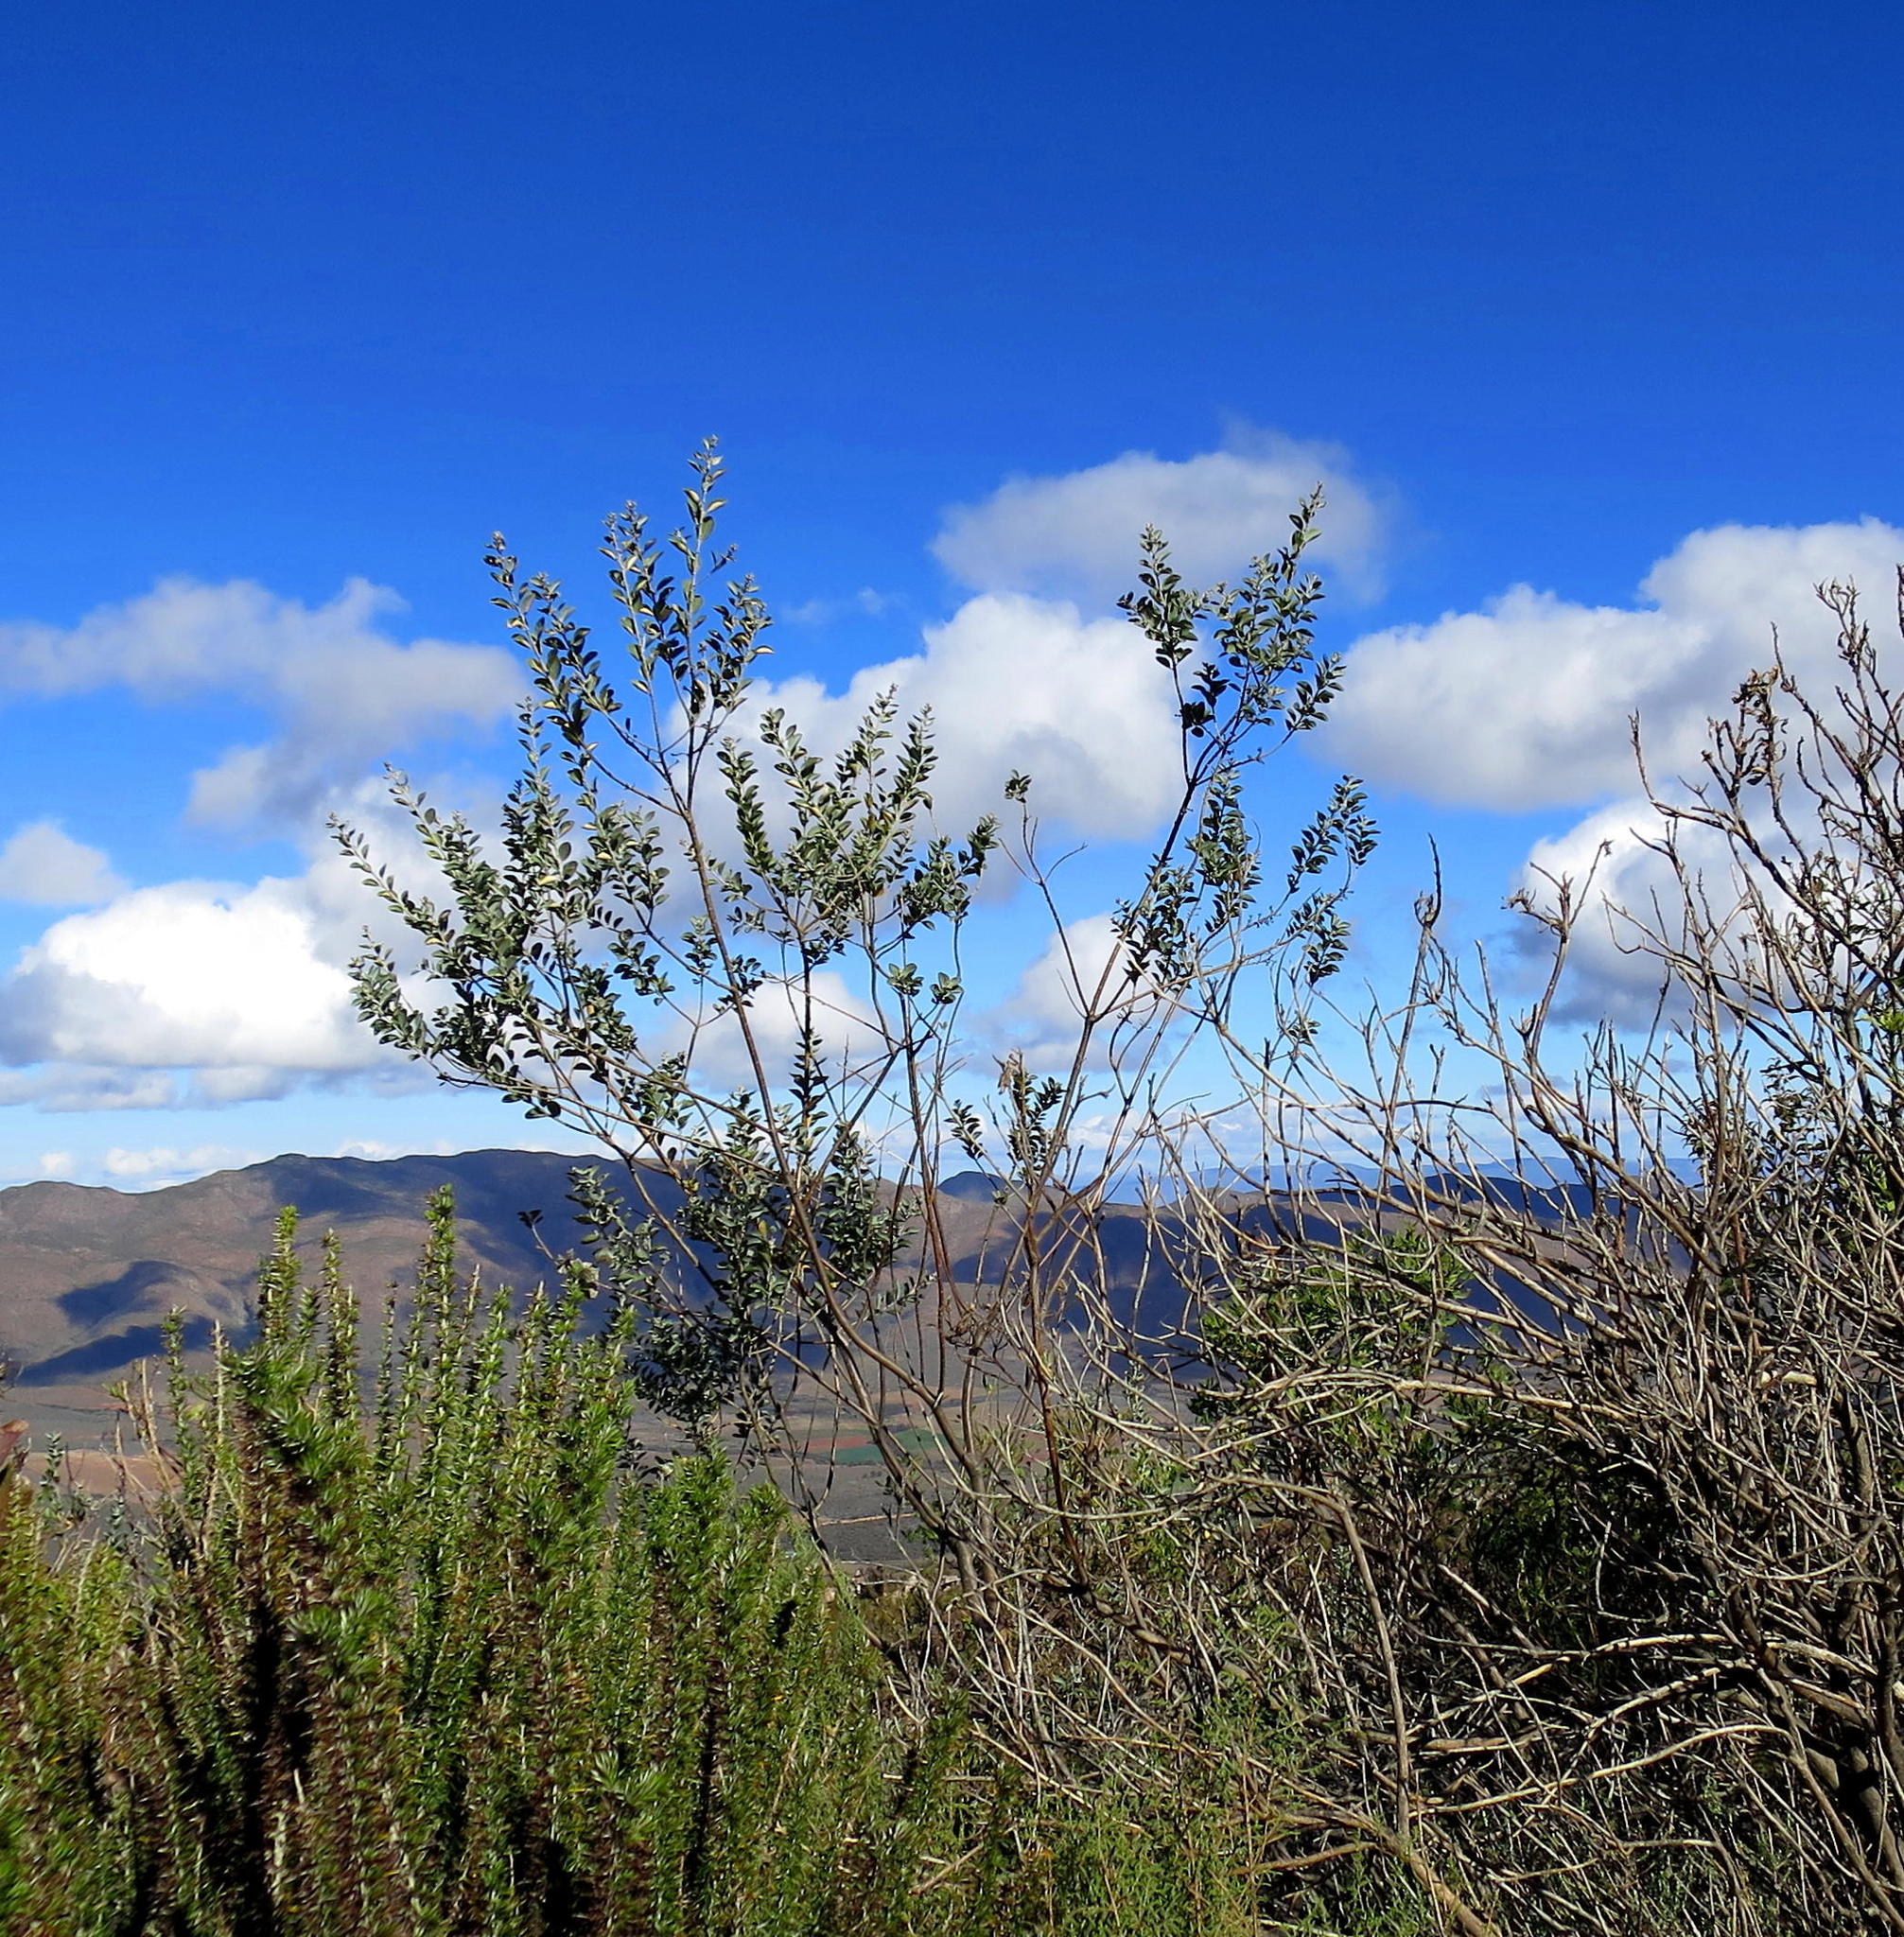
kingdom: Plantae
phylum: Tracheophyta
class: Magnoliopsida
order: Fabales
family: Fabaceae
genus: Stirtonanthus
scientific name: Stirtonanthus taylorianus
